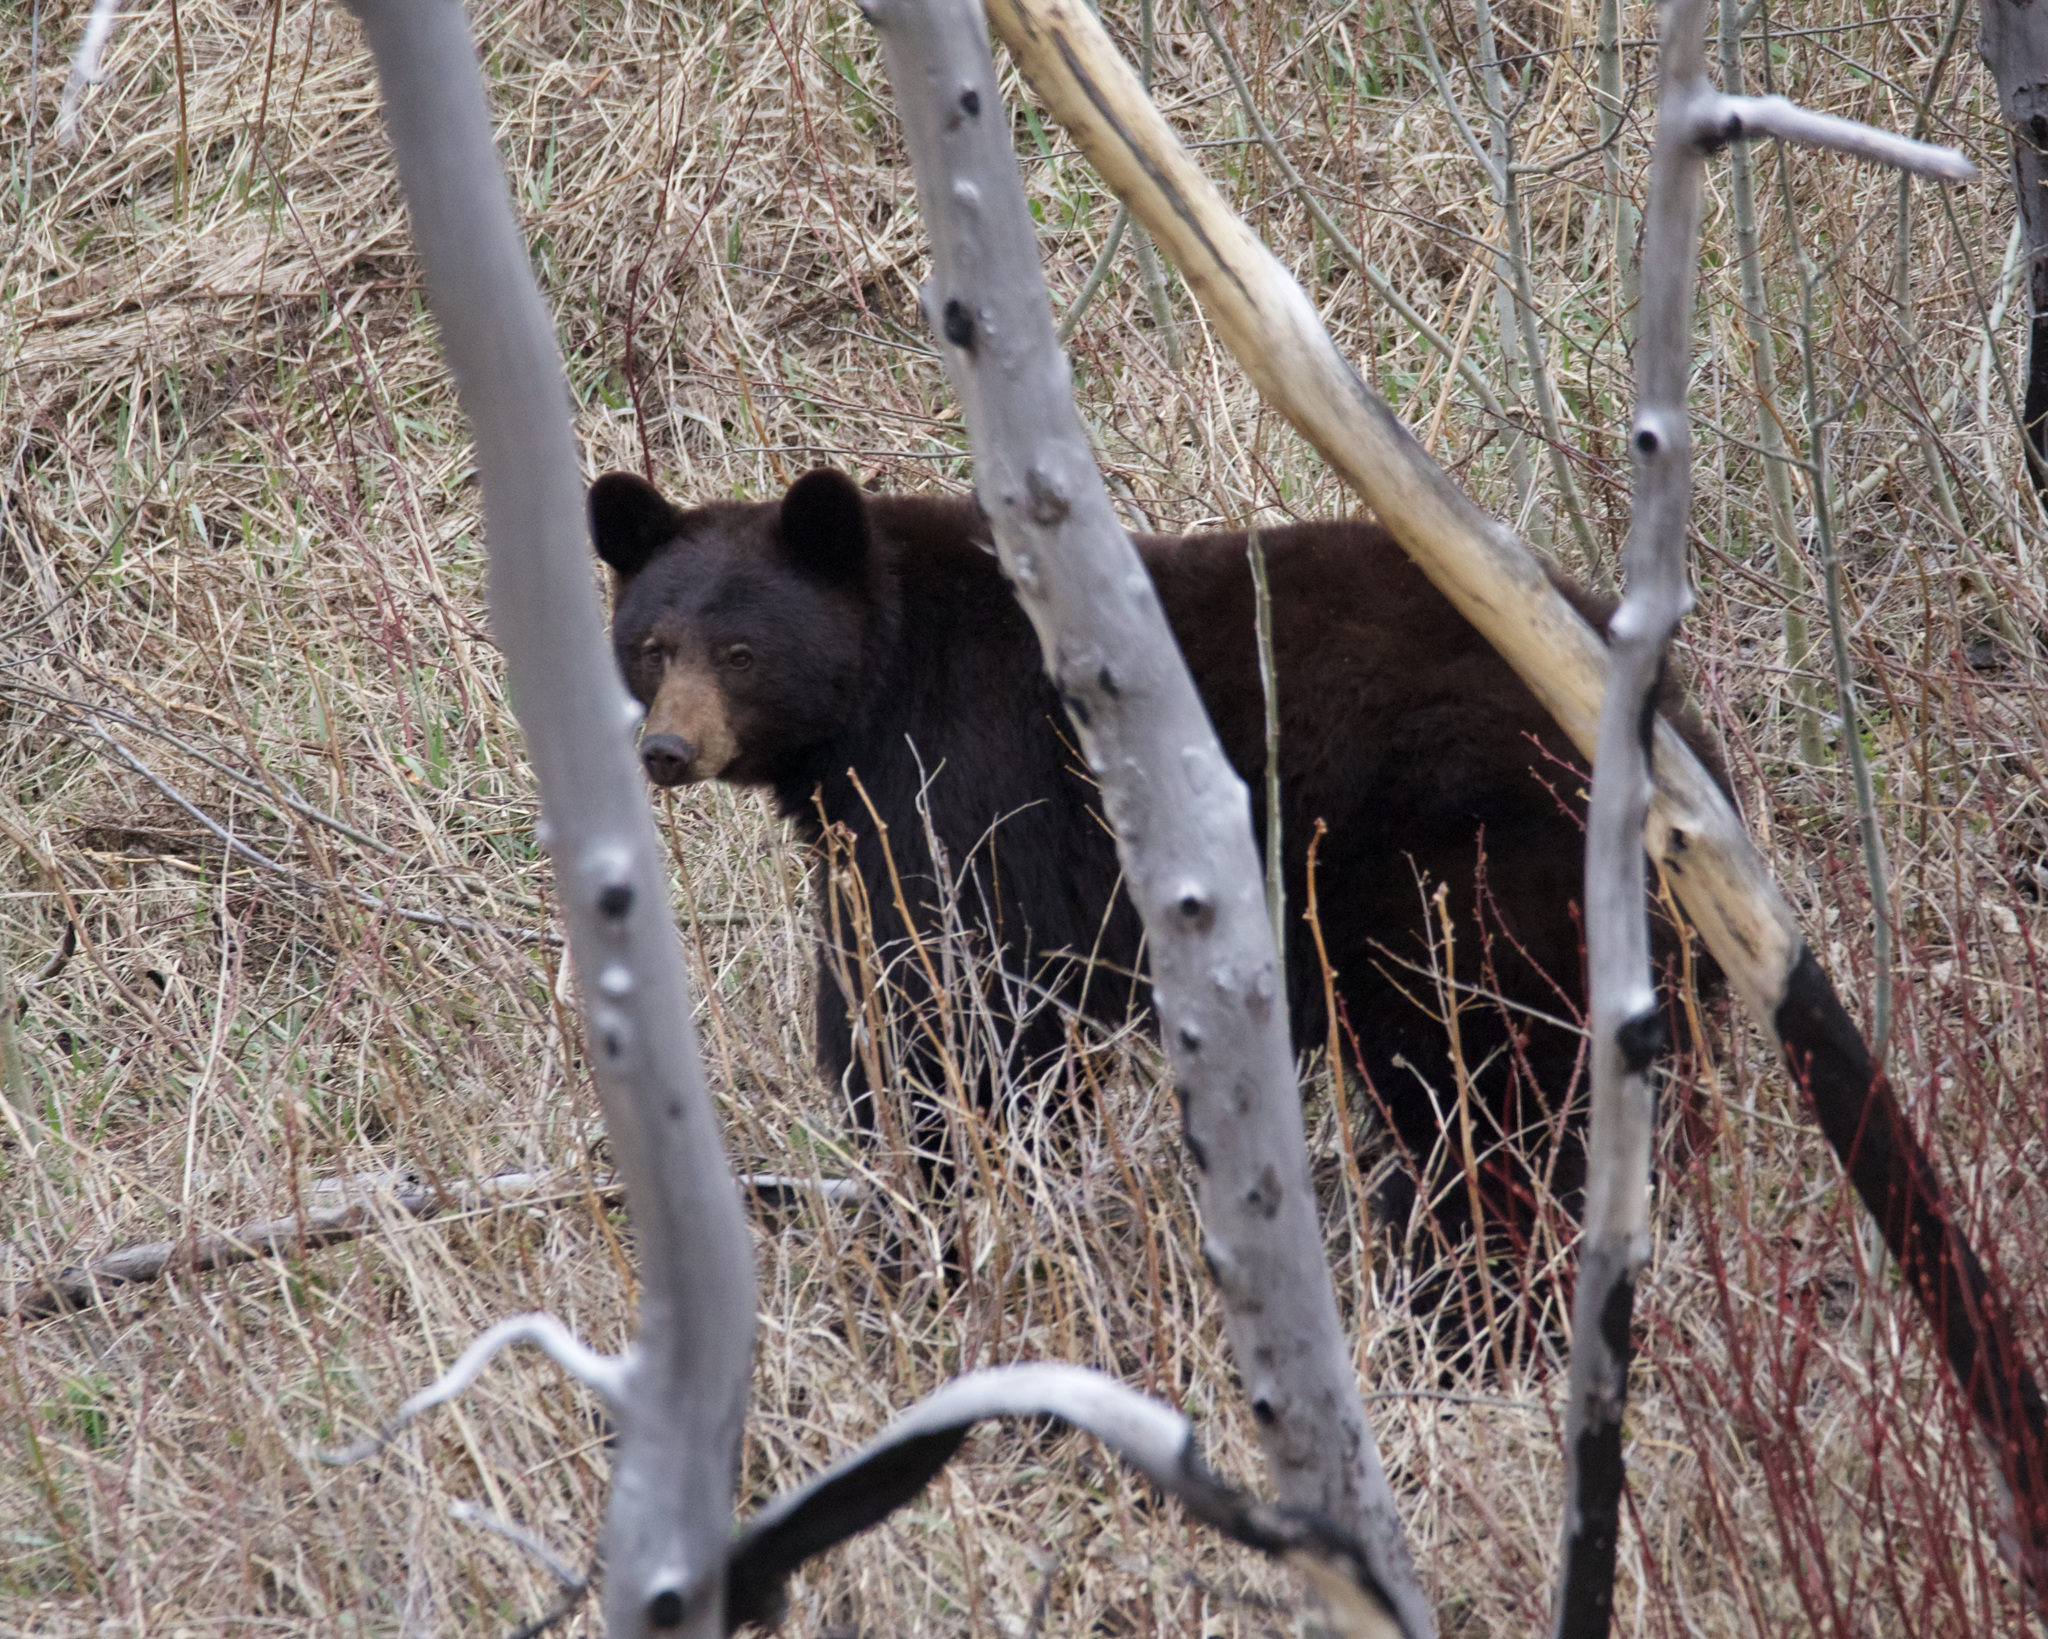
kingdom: Animalia
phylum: Chordata
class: Mammalia
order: Carnivora
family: Ursidae
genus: Ursus
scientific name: Ursus americanus
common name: American black bear
